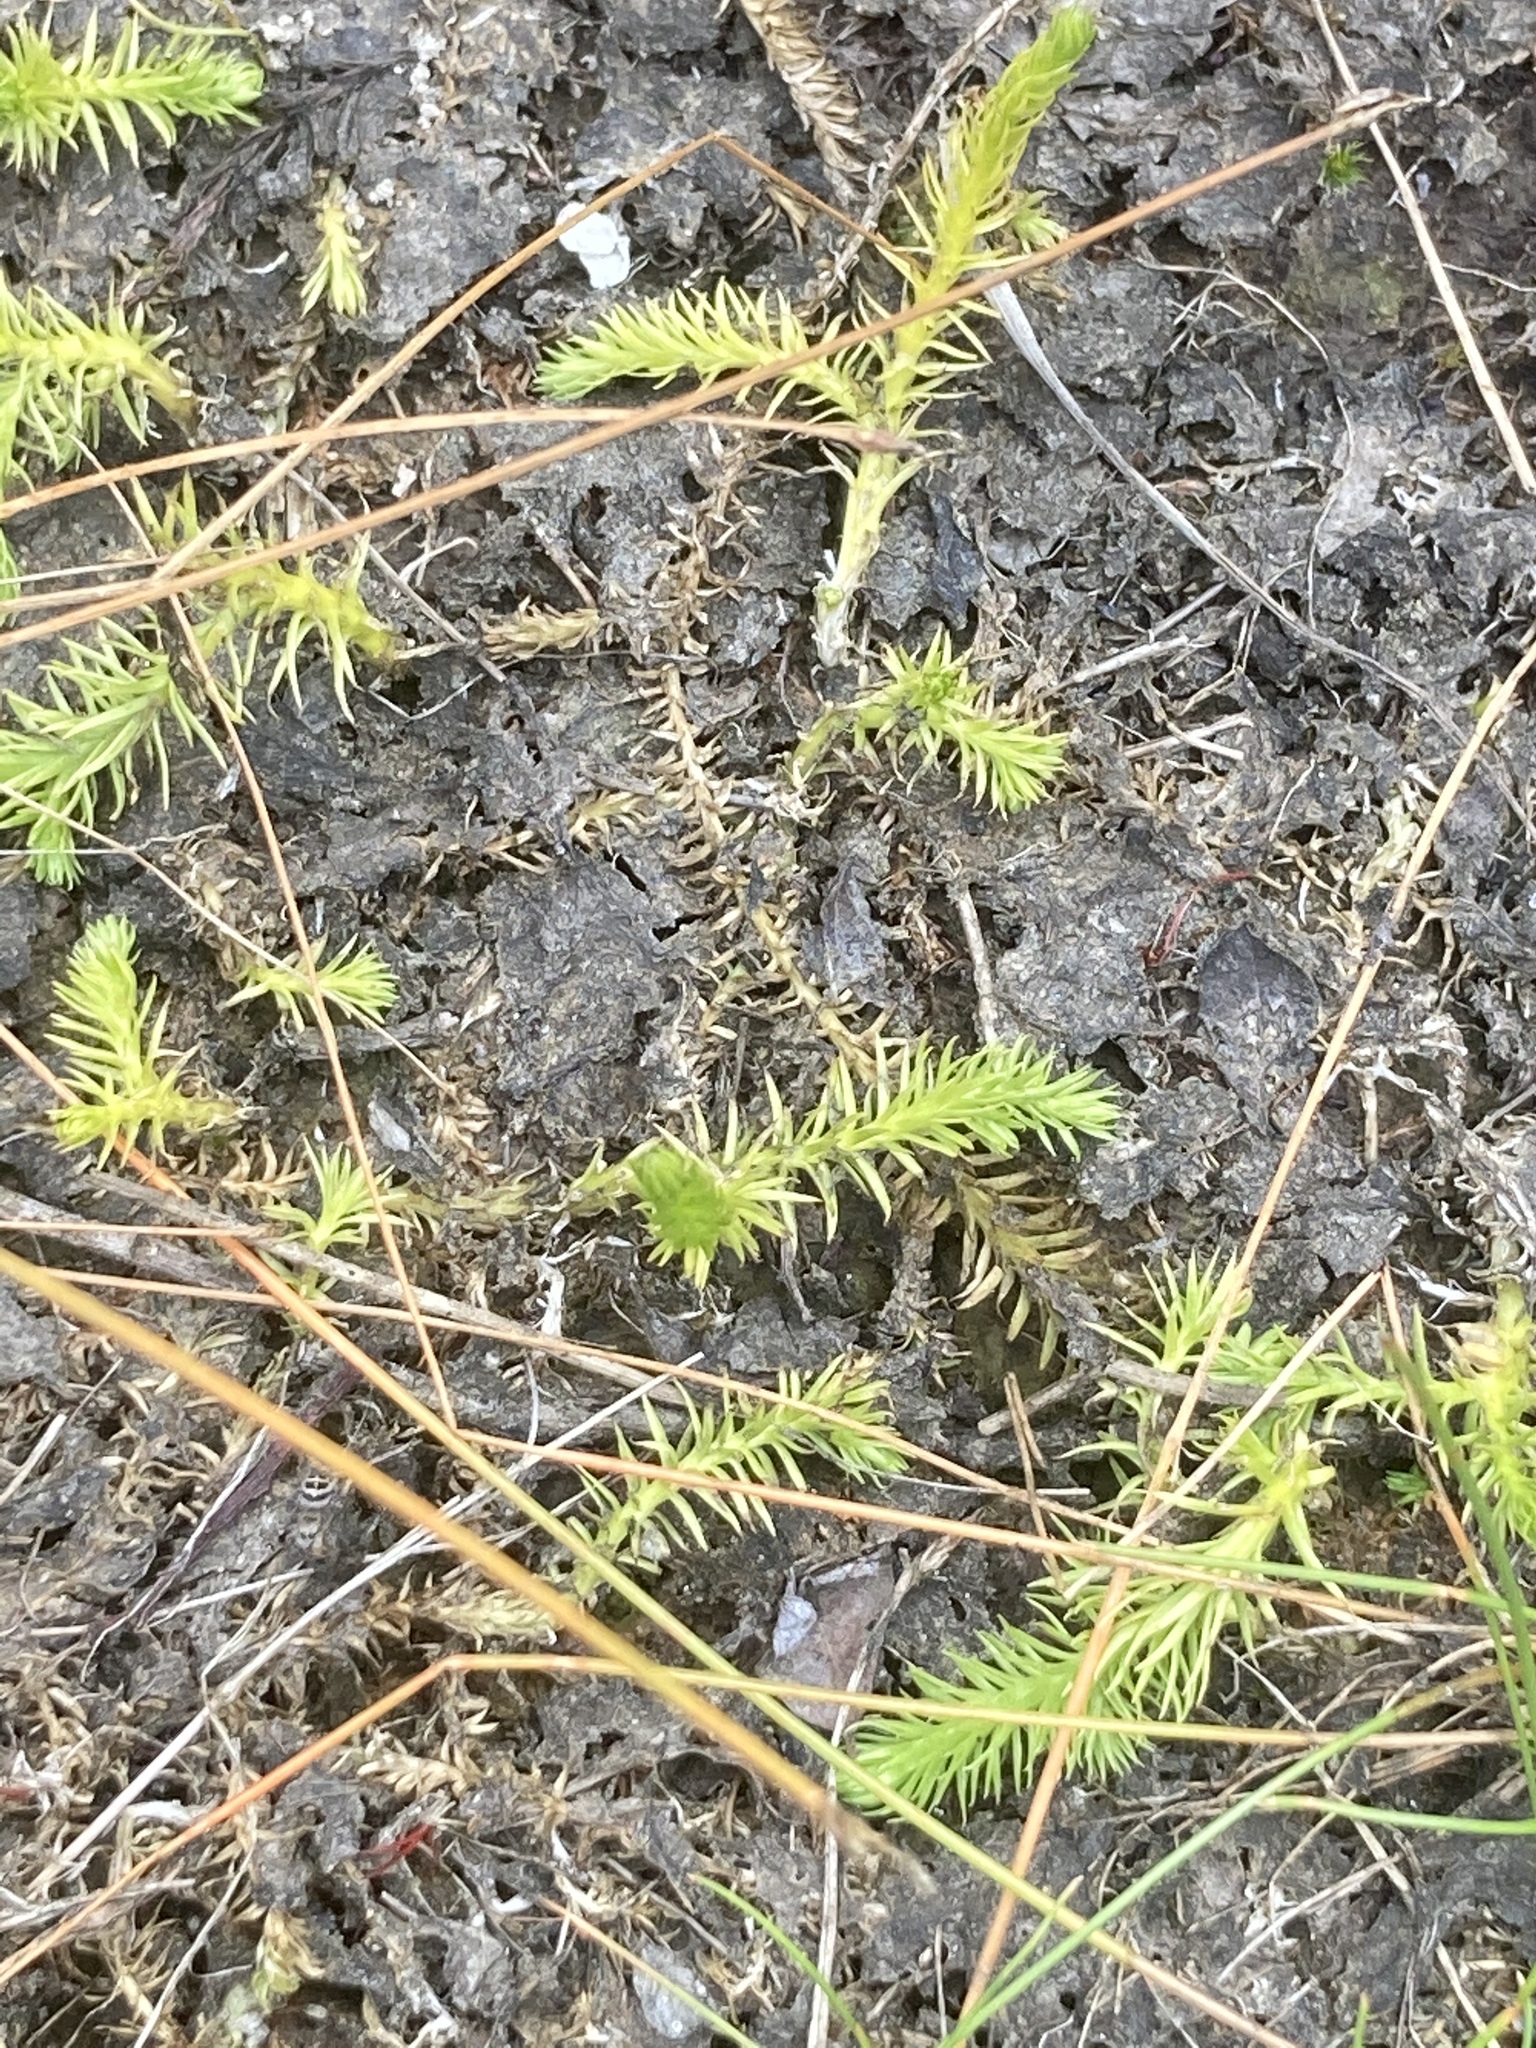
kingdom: Plantae
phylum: Tracheophyta
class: Lycopodiopsida
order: Lycopodiales
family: Lycopodiaceae
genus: Lycopodiella
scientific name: Lycopodiella inundata
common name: Marsh clubmoss
